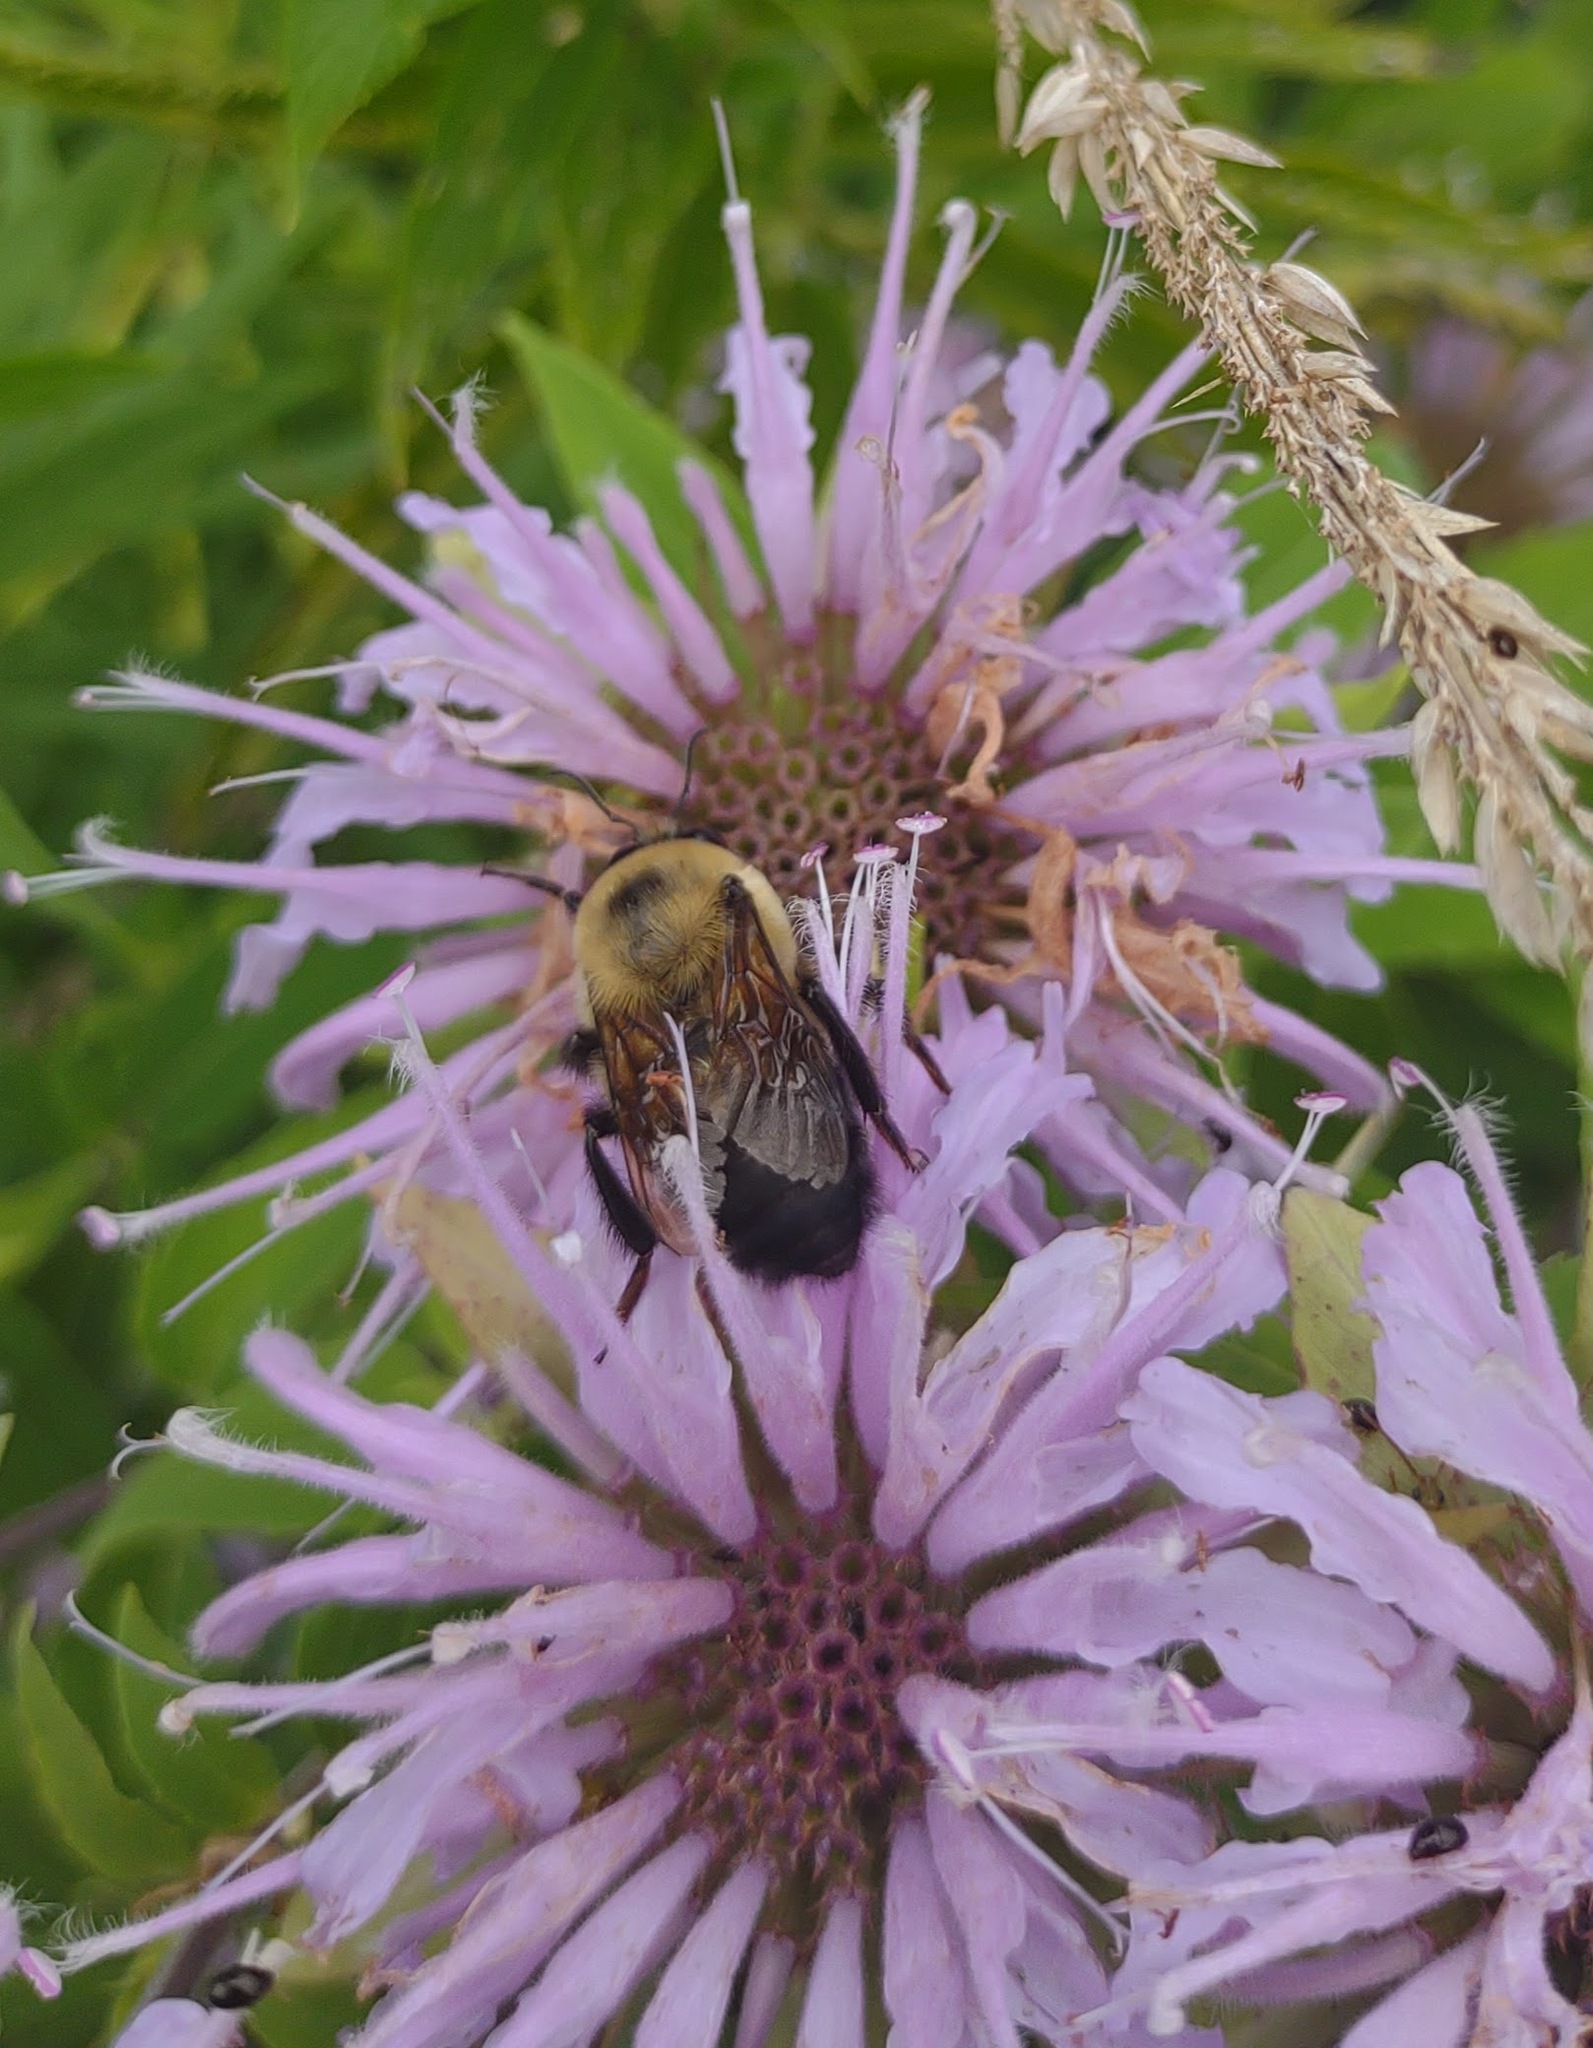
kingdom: Animalia
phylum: Arthropoda
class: Insecta
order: Hymenoptera
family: Apidae
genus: Bombus
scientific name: Bombus griseocollis
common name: Brown-belted bumble bee
